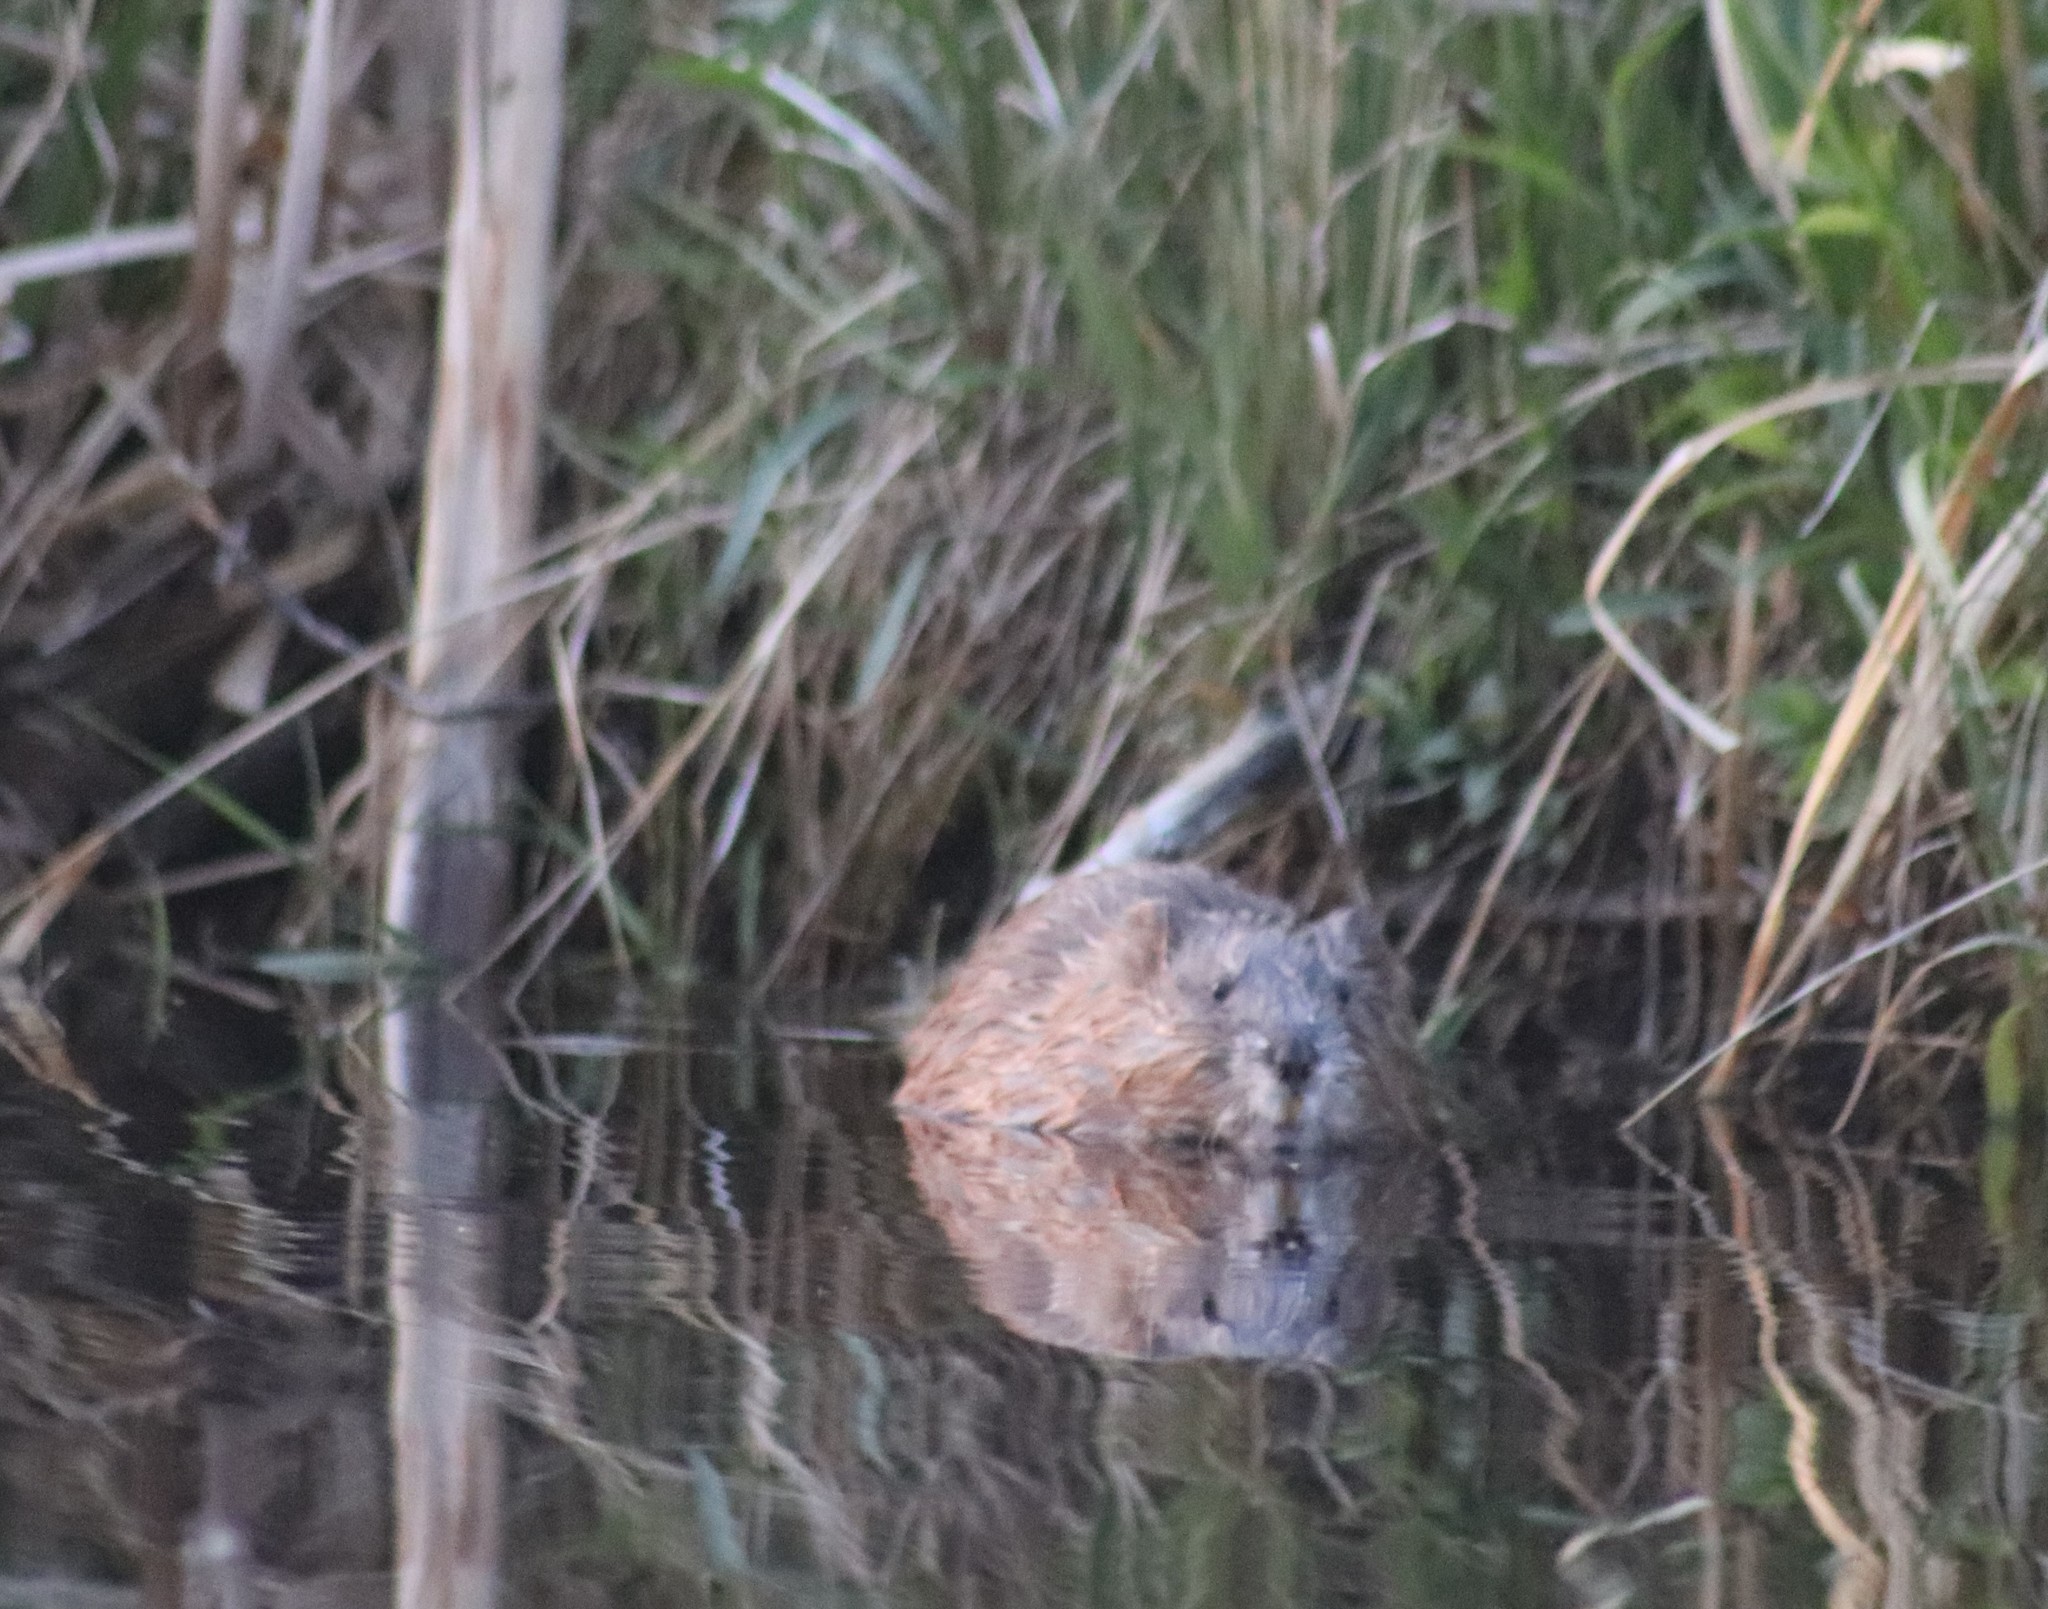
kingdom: Animalia
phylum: Chordata
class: Mammalia
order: Rodentia
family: Cricetidae
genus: Ondatra
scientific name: Ondatra zibethicus
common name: Muskrat
